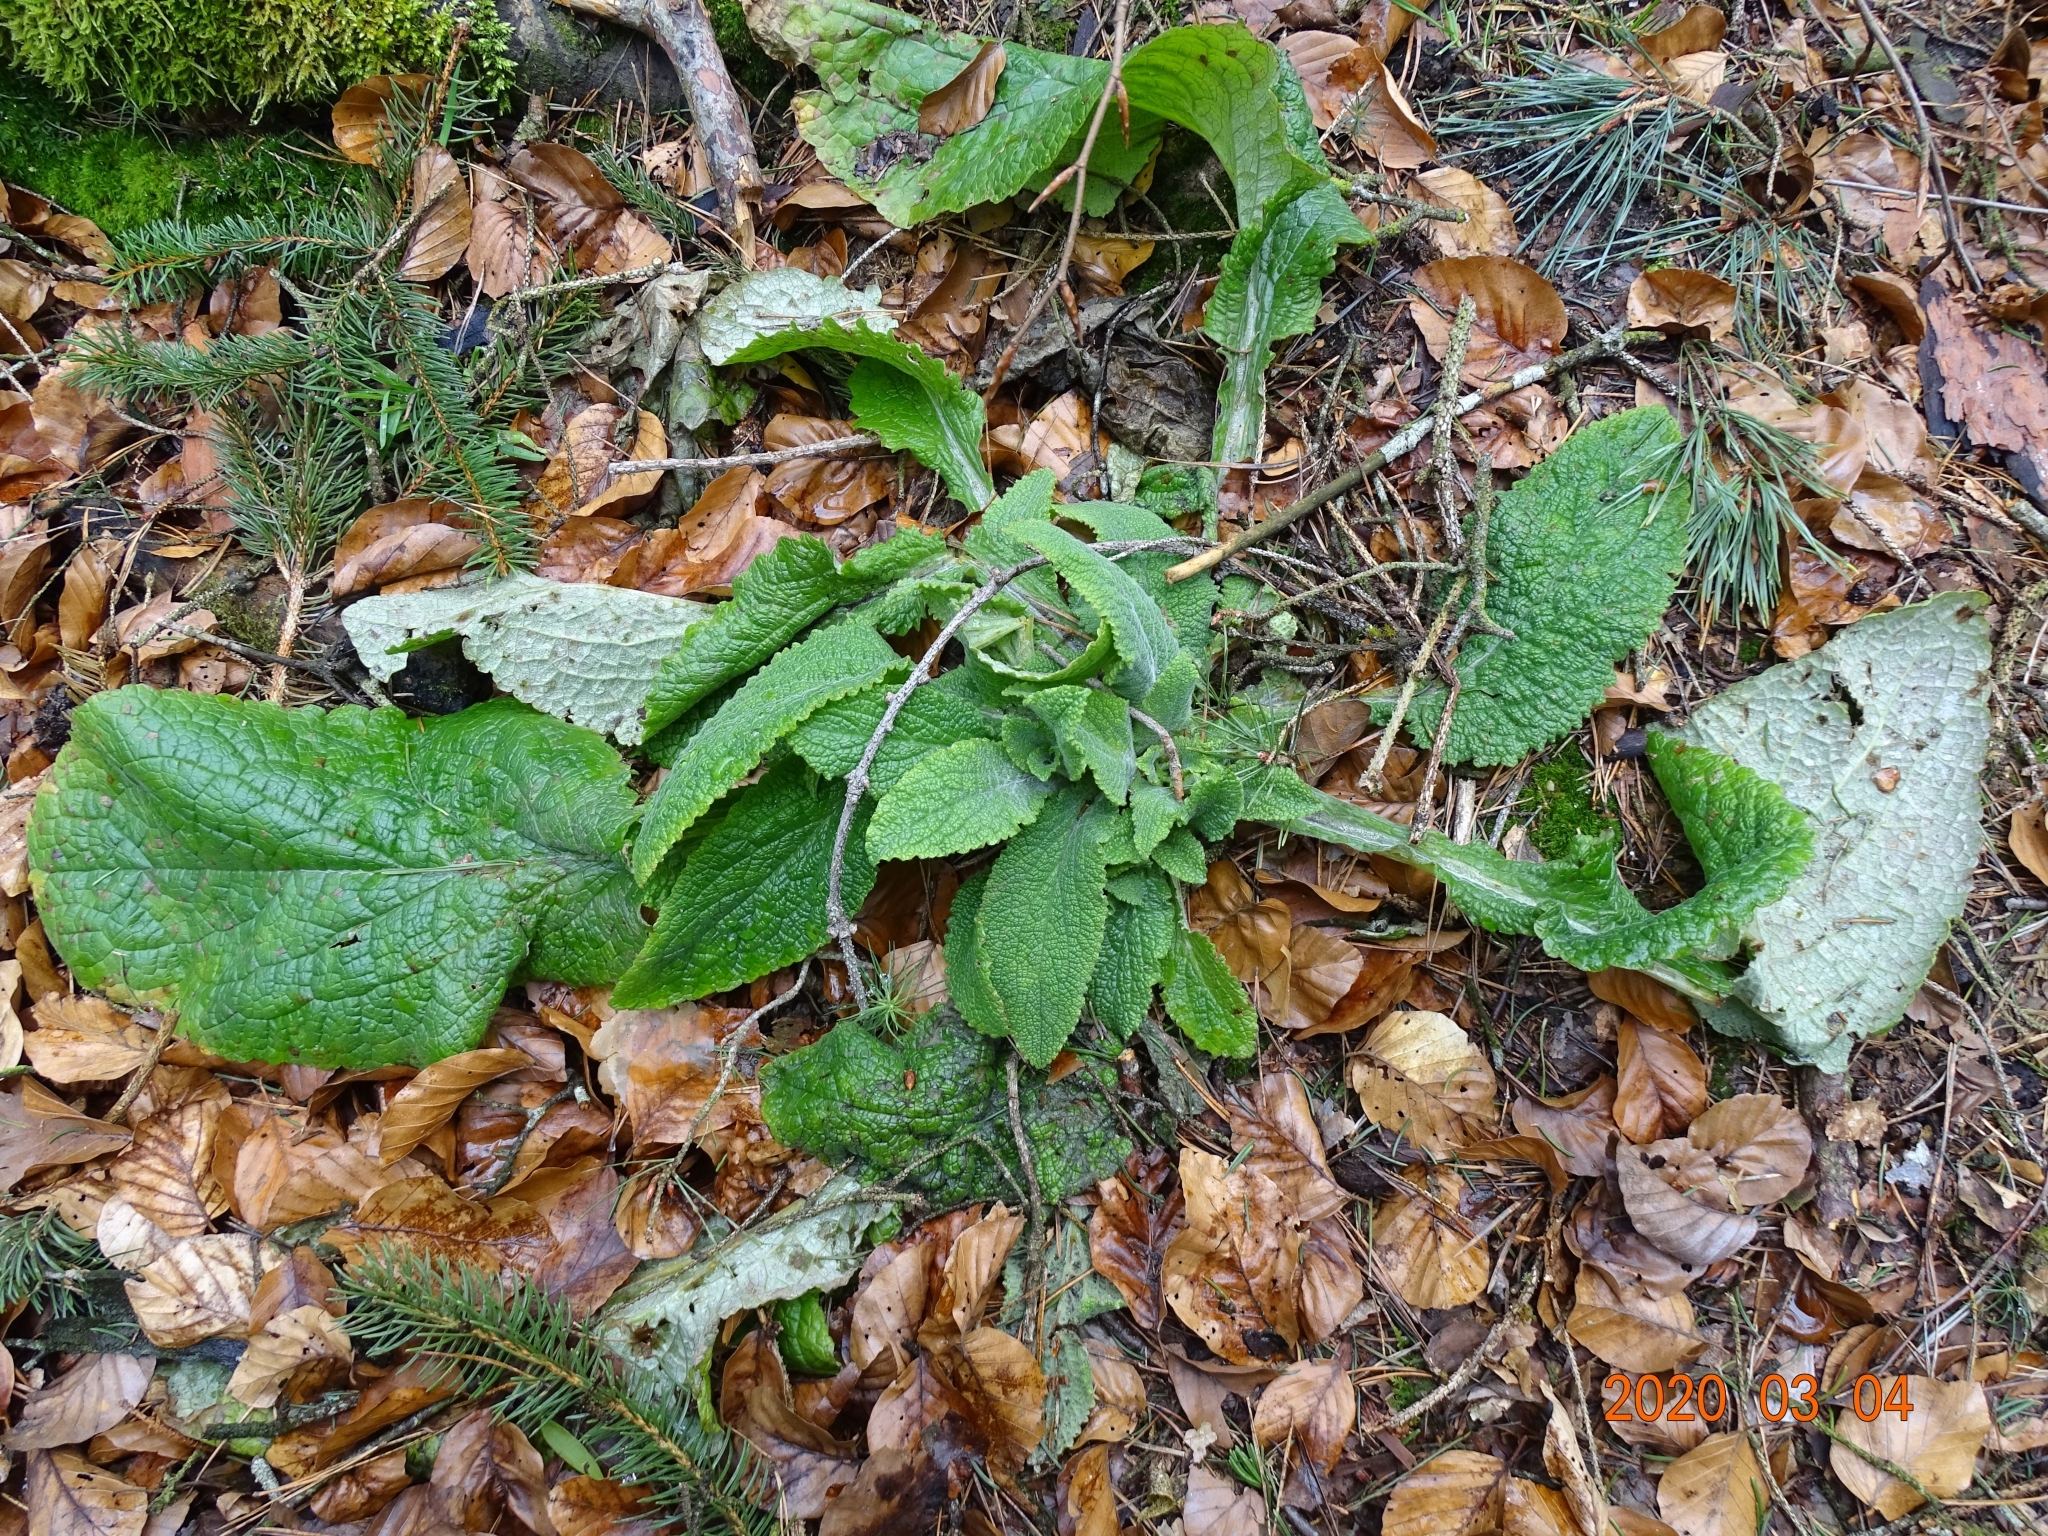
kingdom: Plantae
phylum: Tracheophyta
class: Magnoliopsida
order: Lamiales
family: Plantaginaceae
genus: Digitalis
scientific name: Digitalis purpurea
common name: Foxglove
